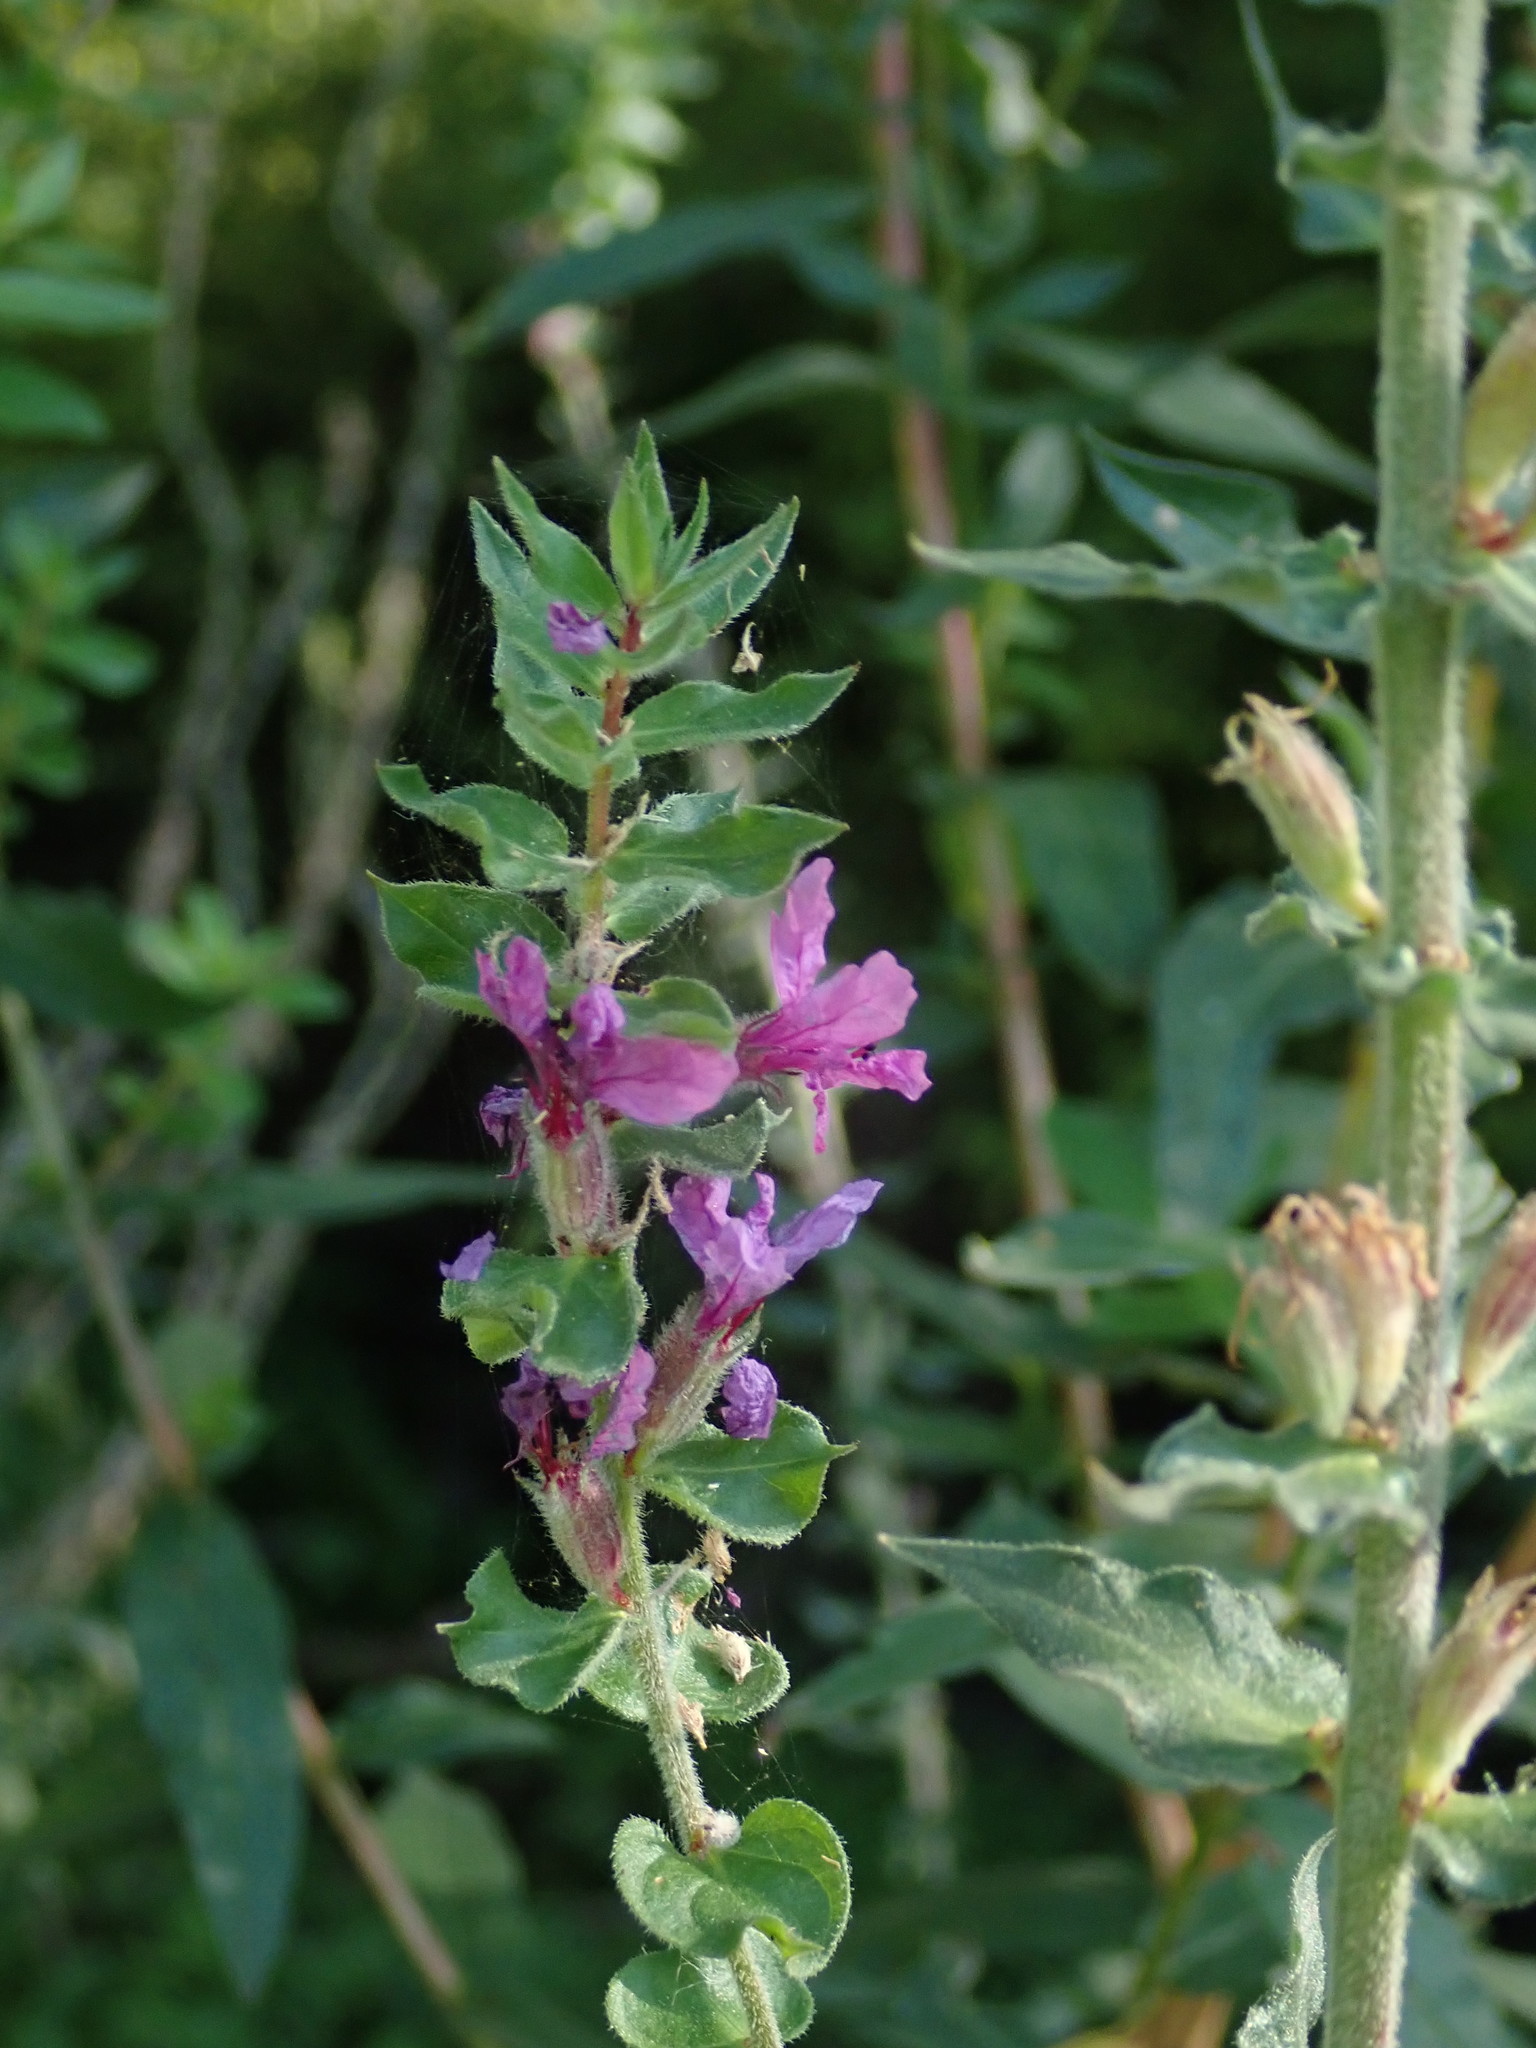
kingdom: Plantae
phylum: Tracheophyta
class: Magnoliopsida
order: Myrtales
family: Lythraceae
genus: Lythrum
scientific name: Lythrum salicaria
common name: Purple loosestrife
